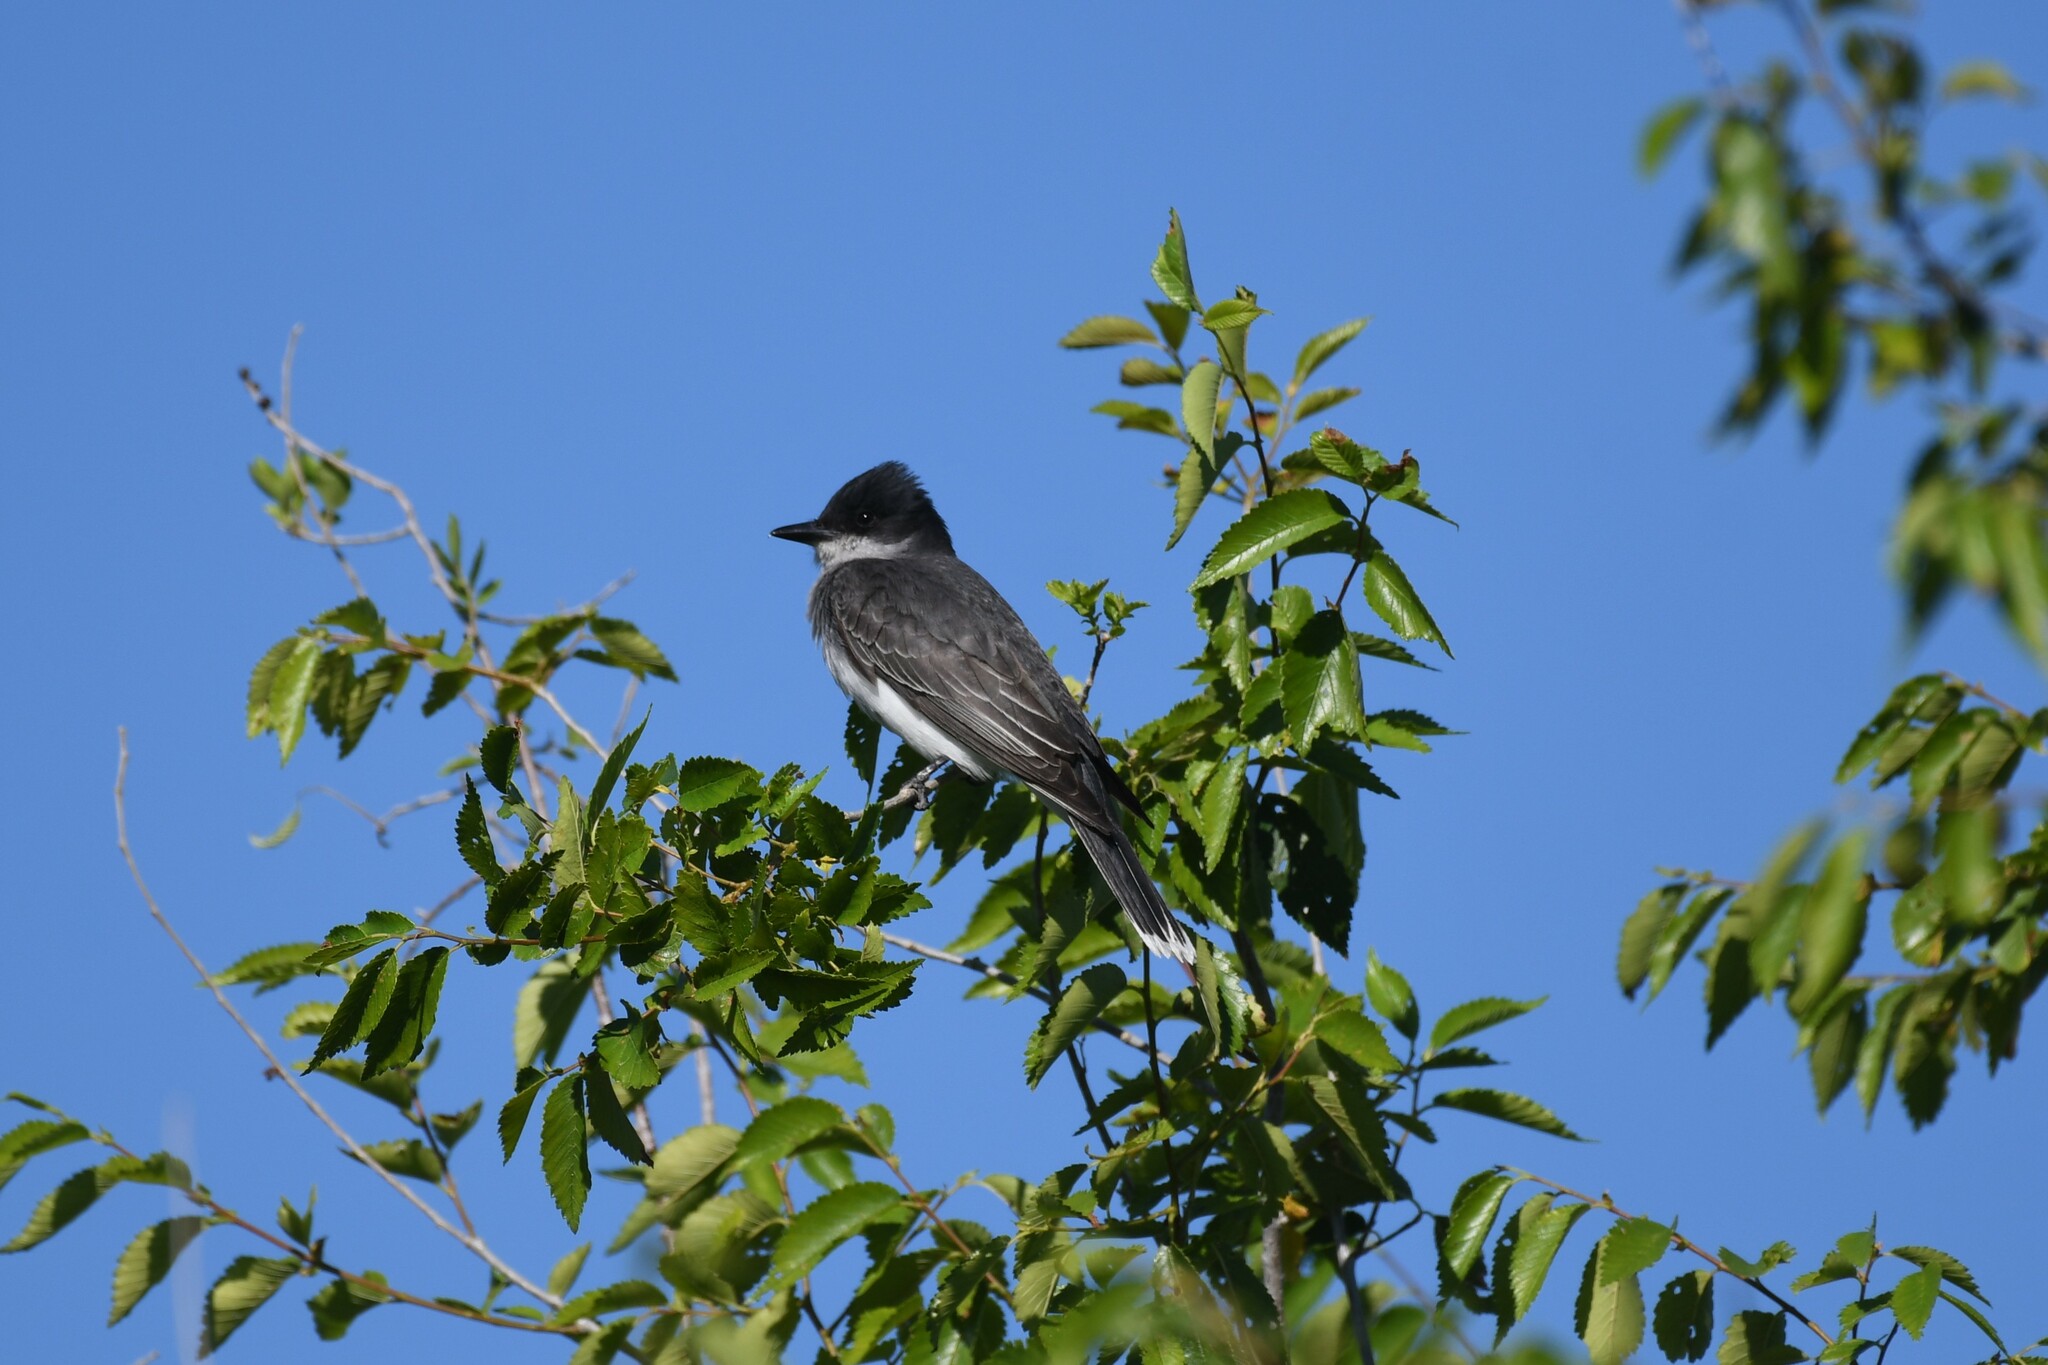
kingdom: Animalia
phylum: Chordata
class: Aves
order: Passeriformes
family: Tyrannidae
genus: Tyrannus
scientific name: Tyrannus tyrannus
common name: Eastern kingbird
